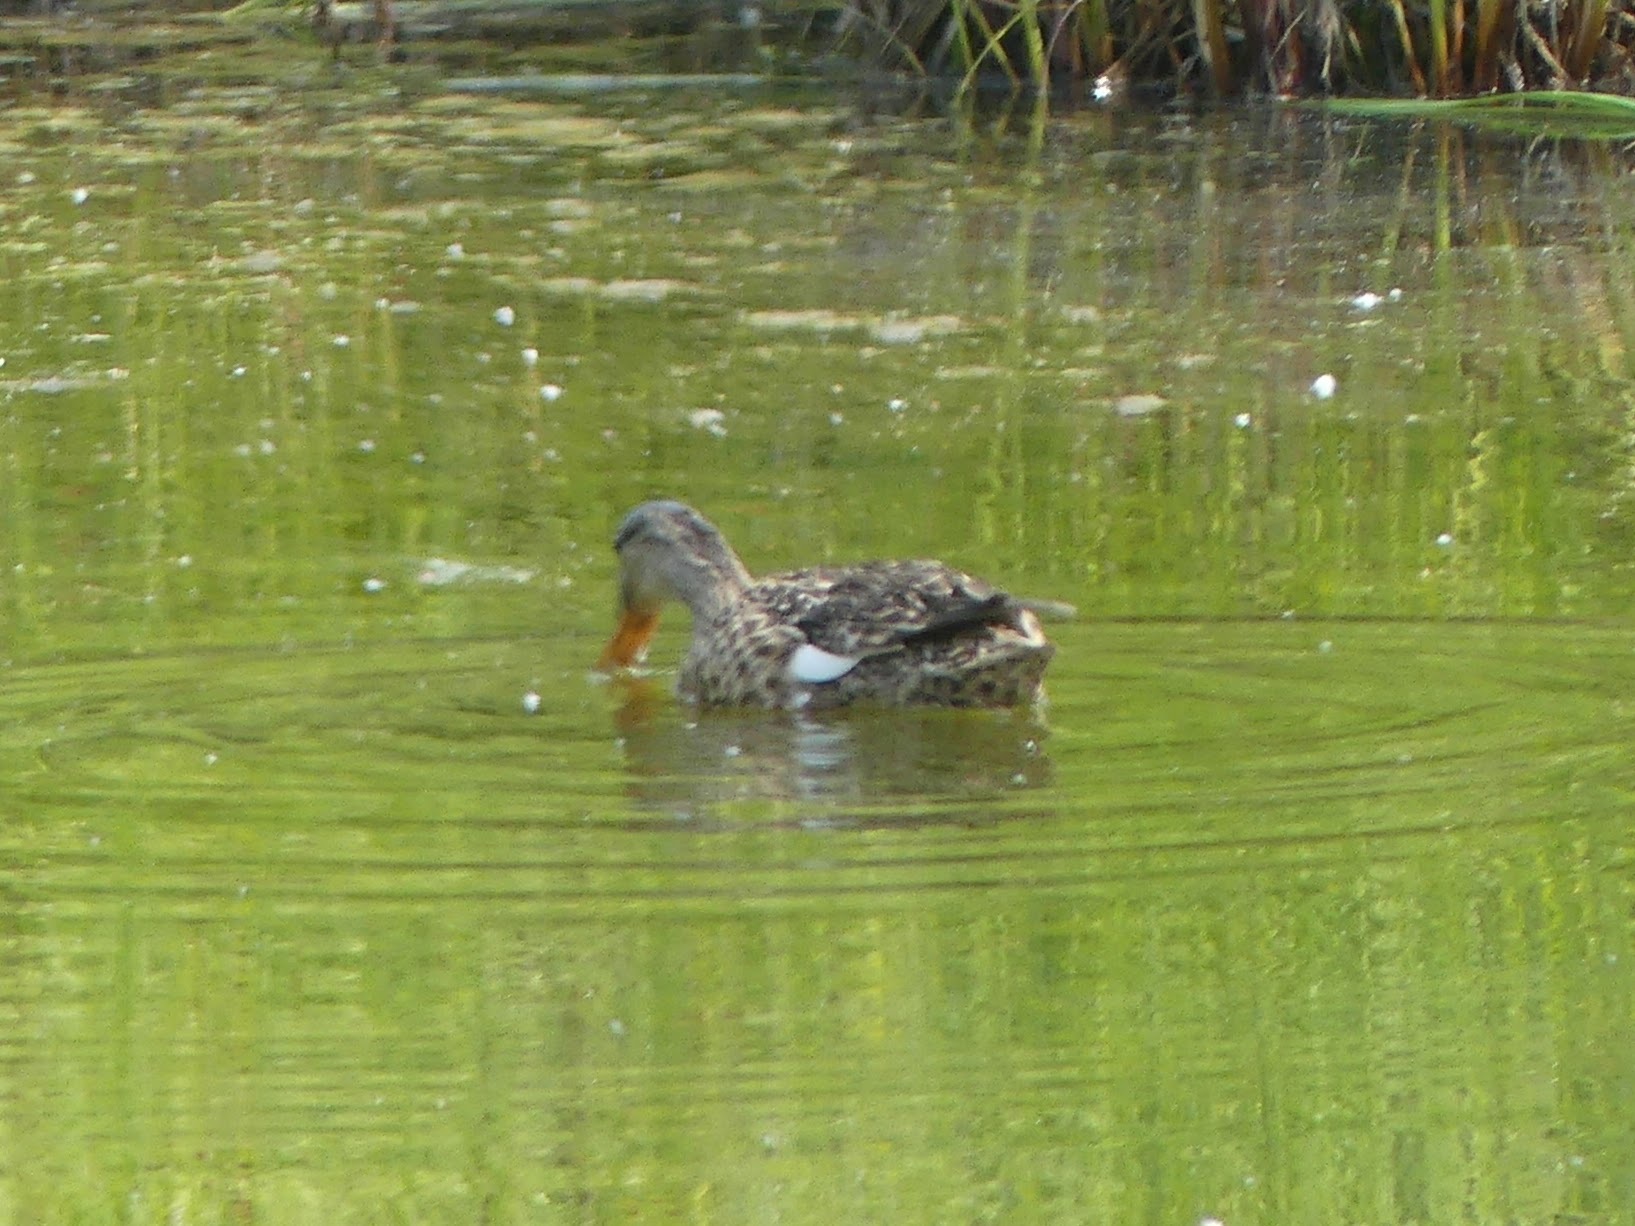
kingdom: Animalia
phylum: Chordata
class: Aves
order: Anseriformes
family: Anatidae
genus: Mareca
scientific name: Mareca strepera
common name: Gadwall
